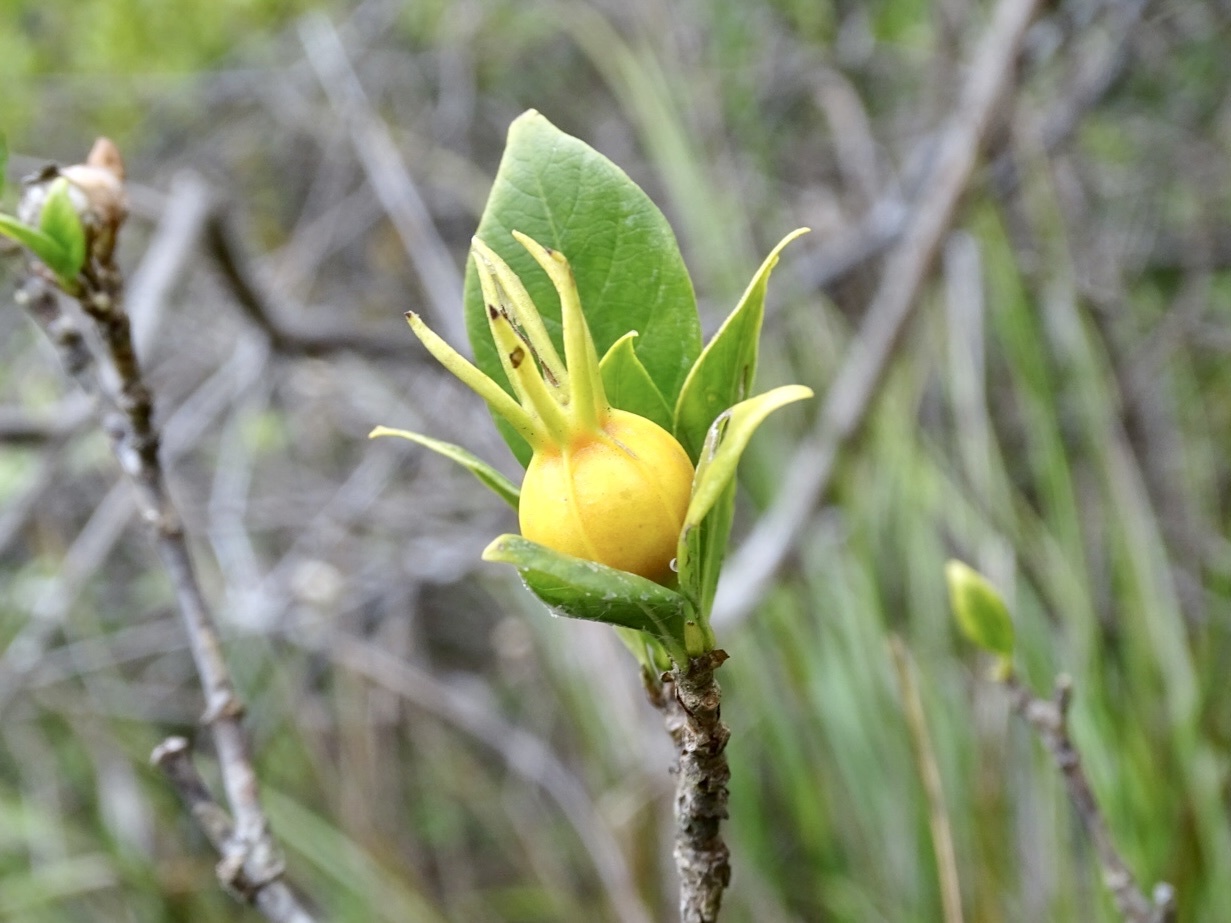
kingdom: Plantae
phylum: Tracheophyta
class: Magnoliopsida
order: Gentianales
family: Rubiaceae
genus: Gardenia
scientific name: Gardenia jasminoides
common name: Cape-jasmine
